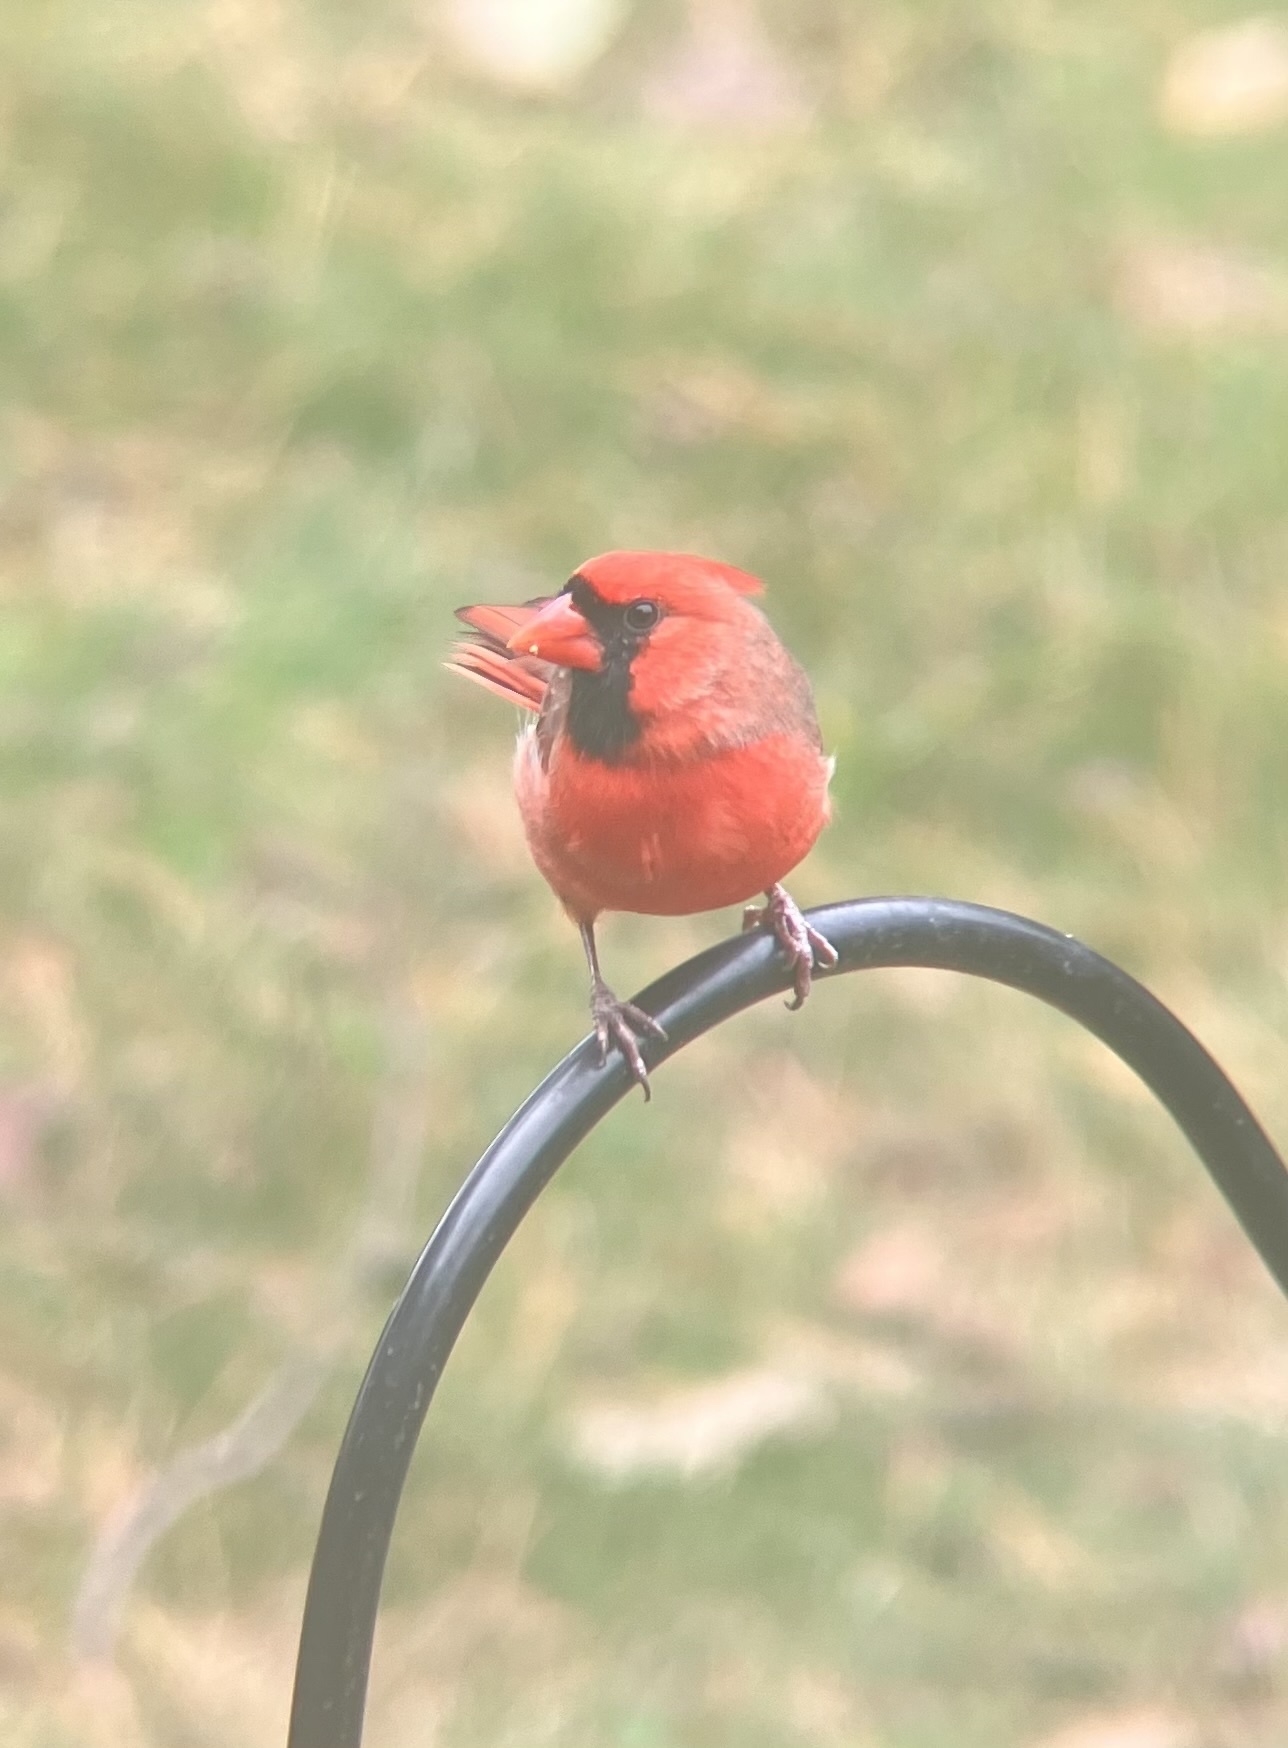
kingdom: Animalia
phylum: Chordata
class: Aves
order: Passeriformes
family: Cardinalidae
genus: Cardinalis
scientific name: Cardinalis cardinalis
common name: Northern cardinal
